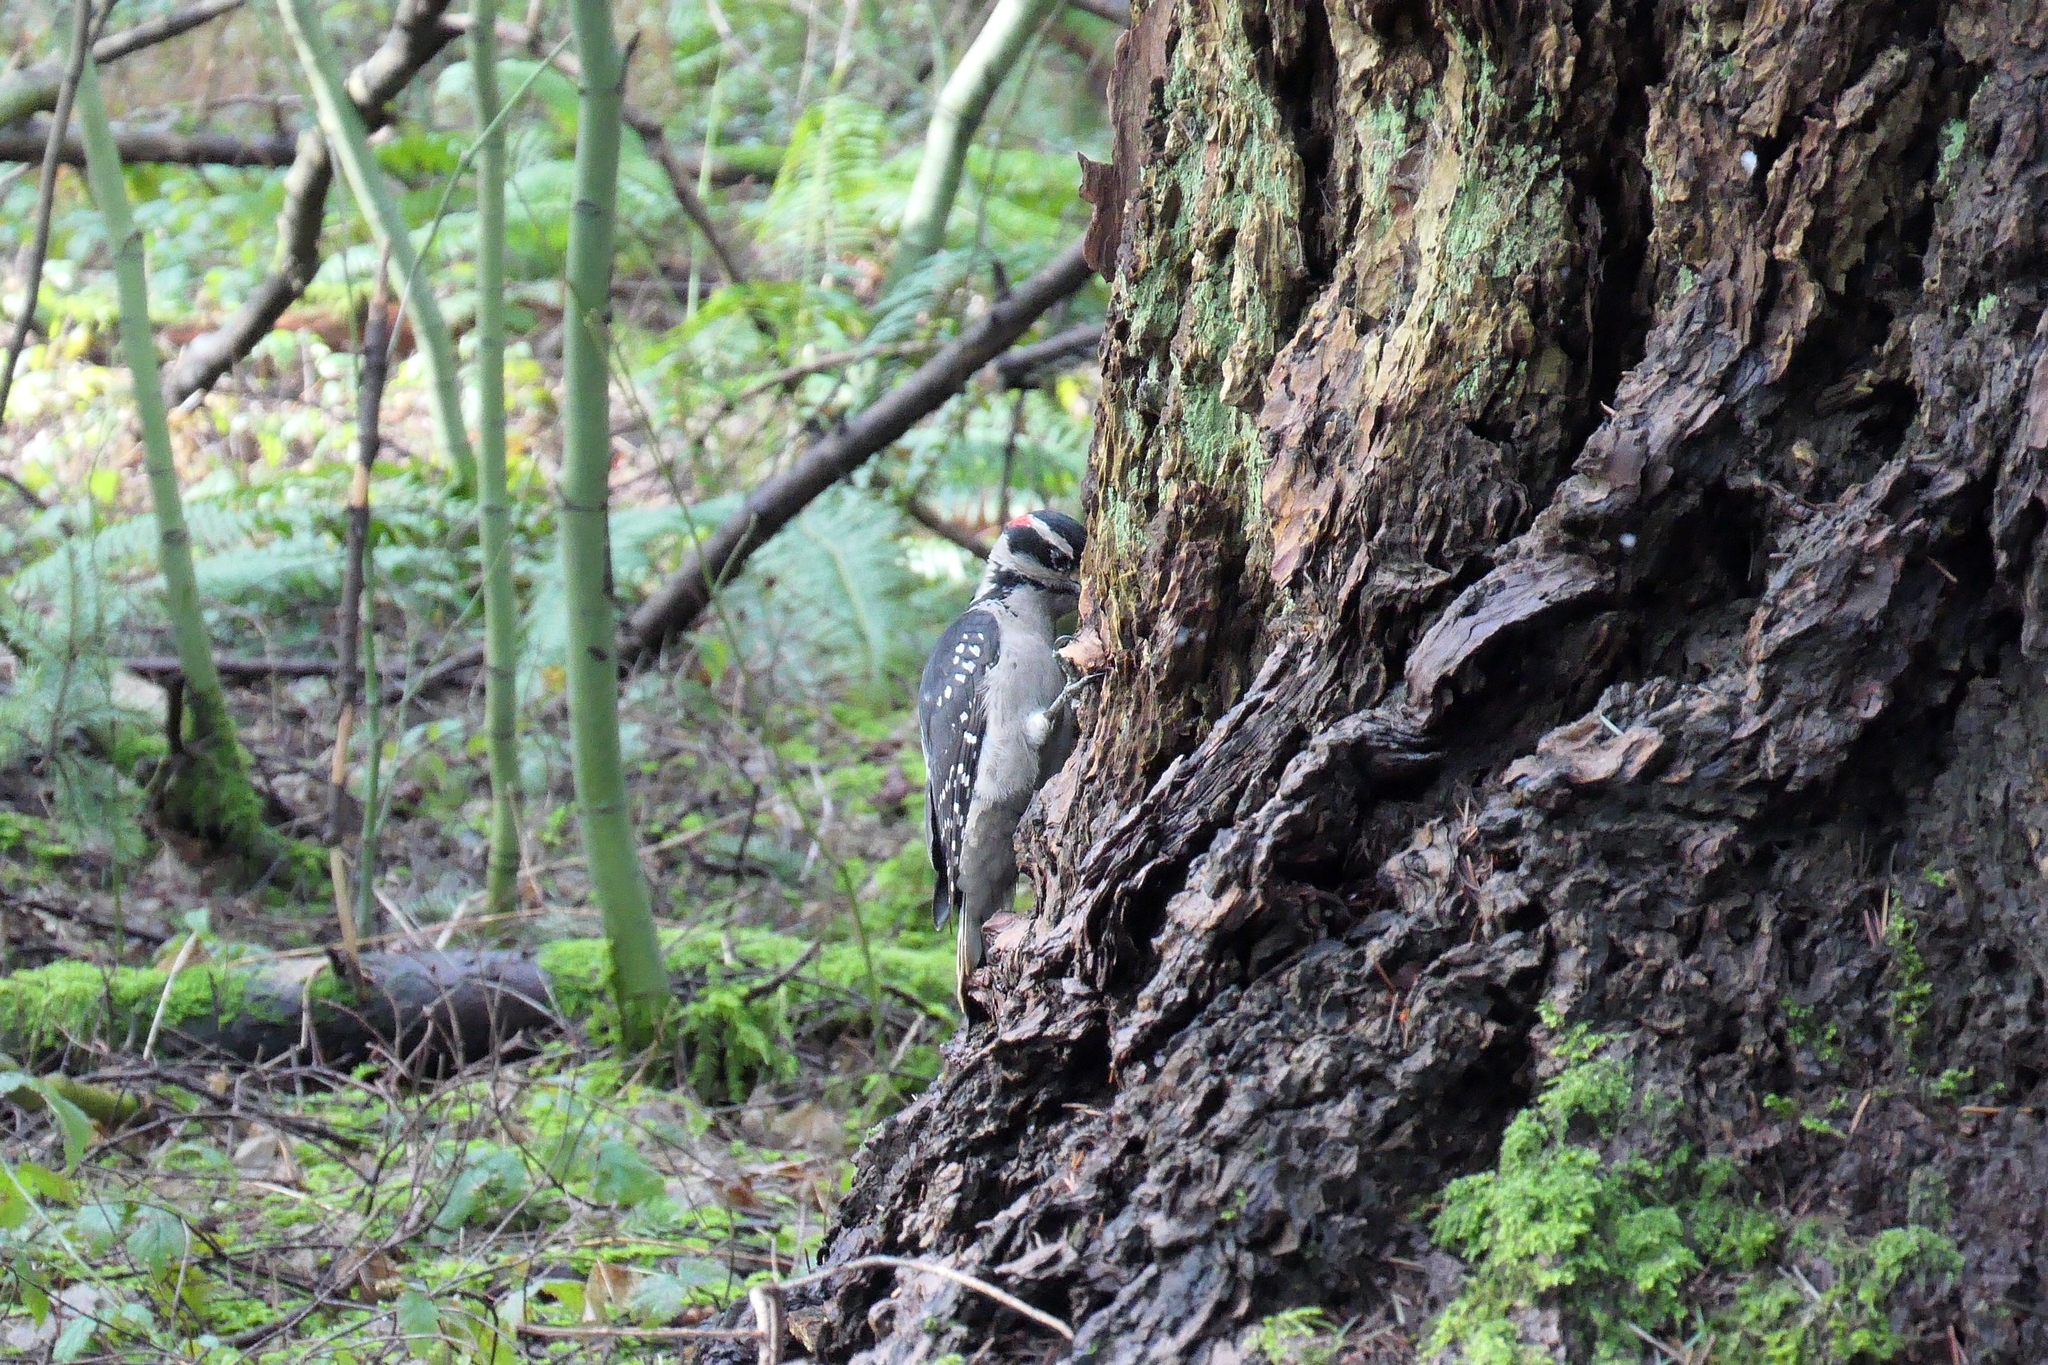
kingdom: Animalia
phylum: Chordata
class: Aves
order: Piciformes
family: Picidae
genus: Leuconotopicus
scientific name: Leuconotopicus villosus
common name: Hairy woodpecker
